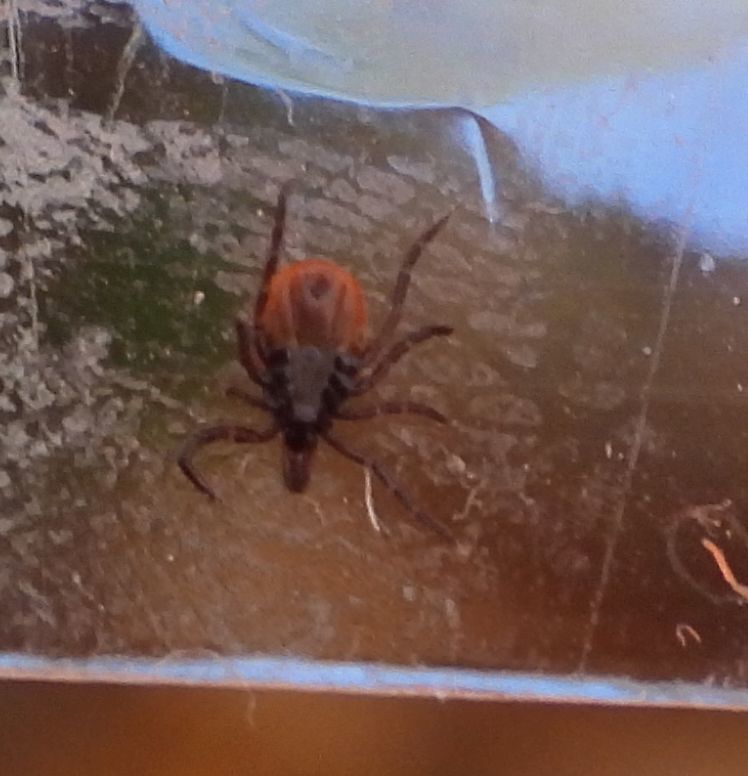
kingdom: Animalia
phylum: Arthropoda
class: Arachnida
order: Ixodida
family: Ixodidae
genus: Ixodes
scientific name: Ixodes scapularis
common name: Black legged tick
